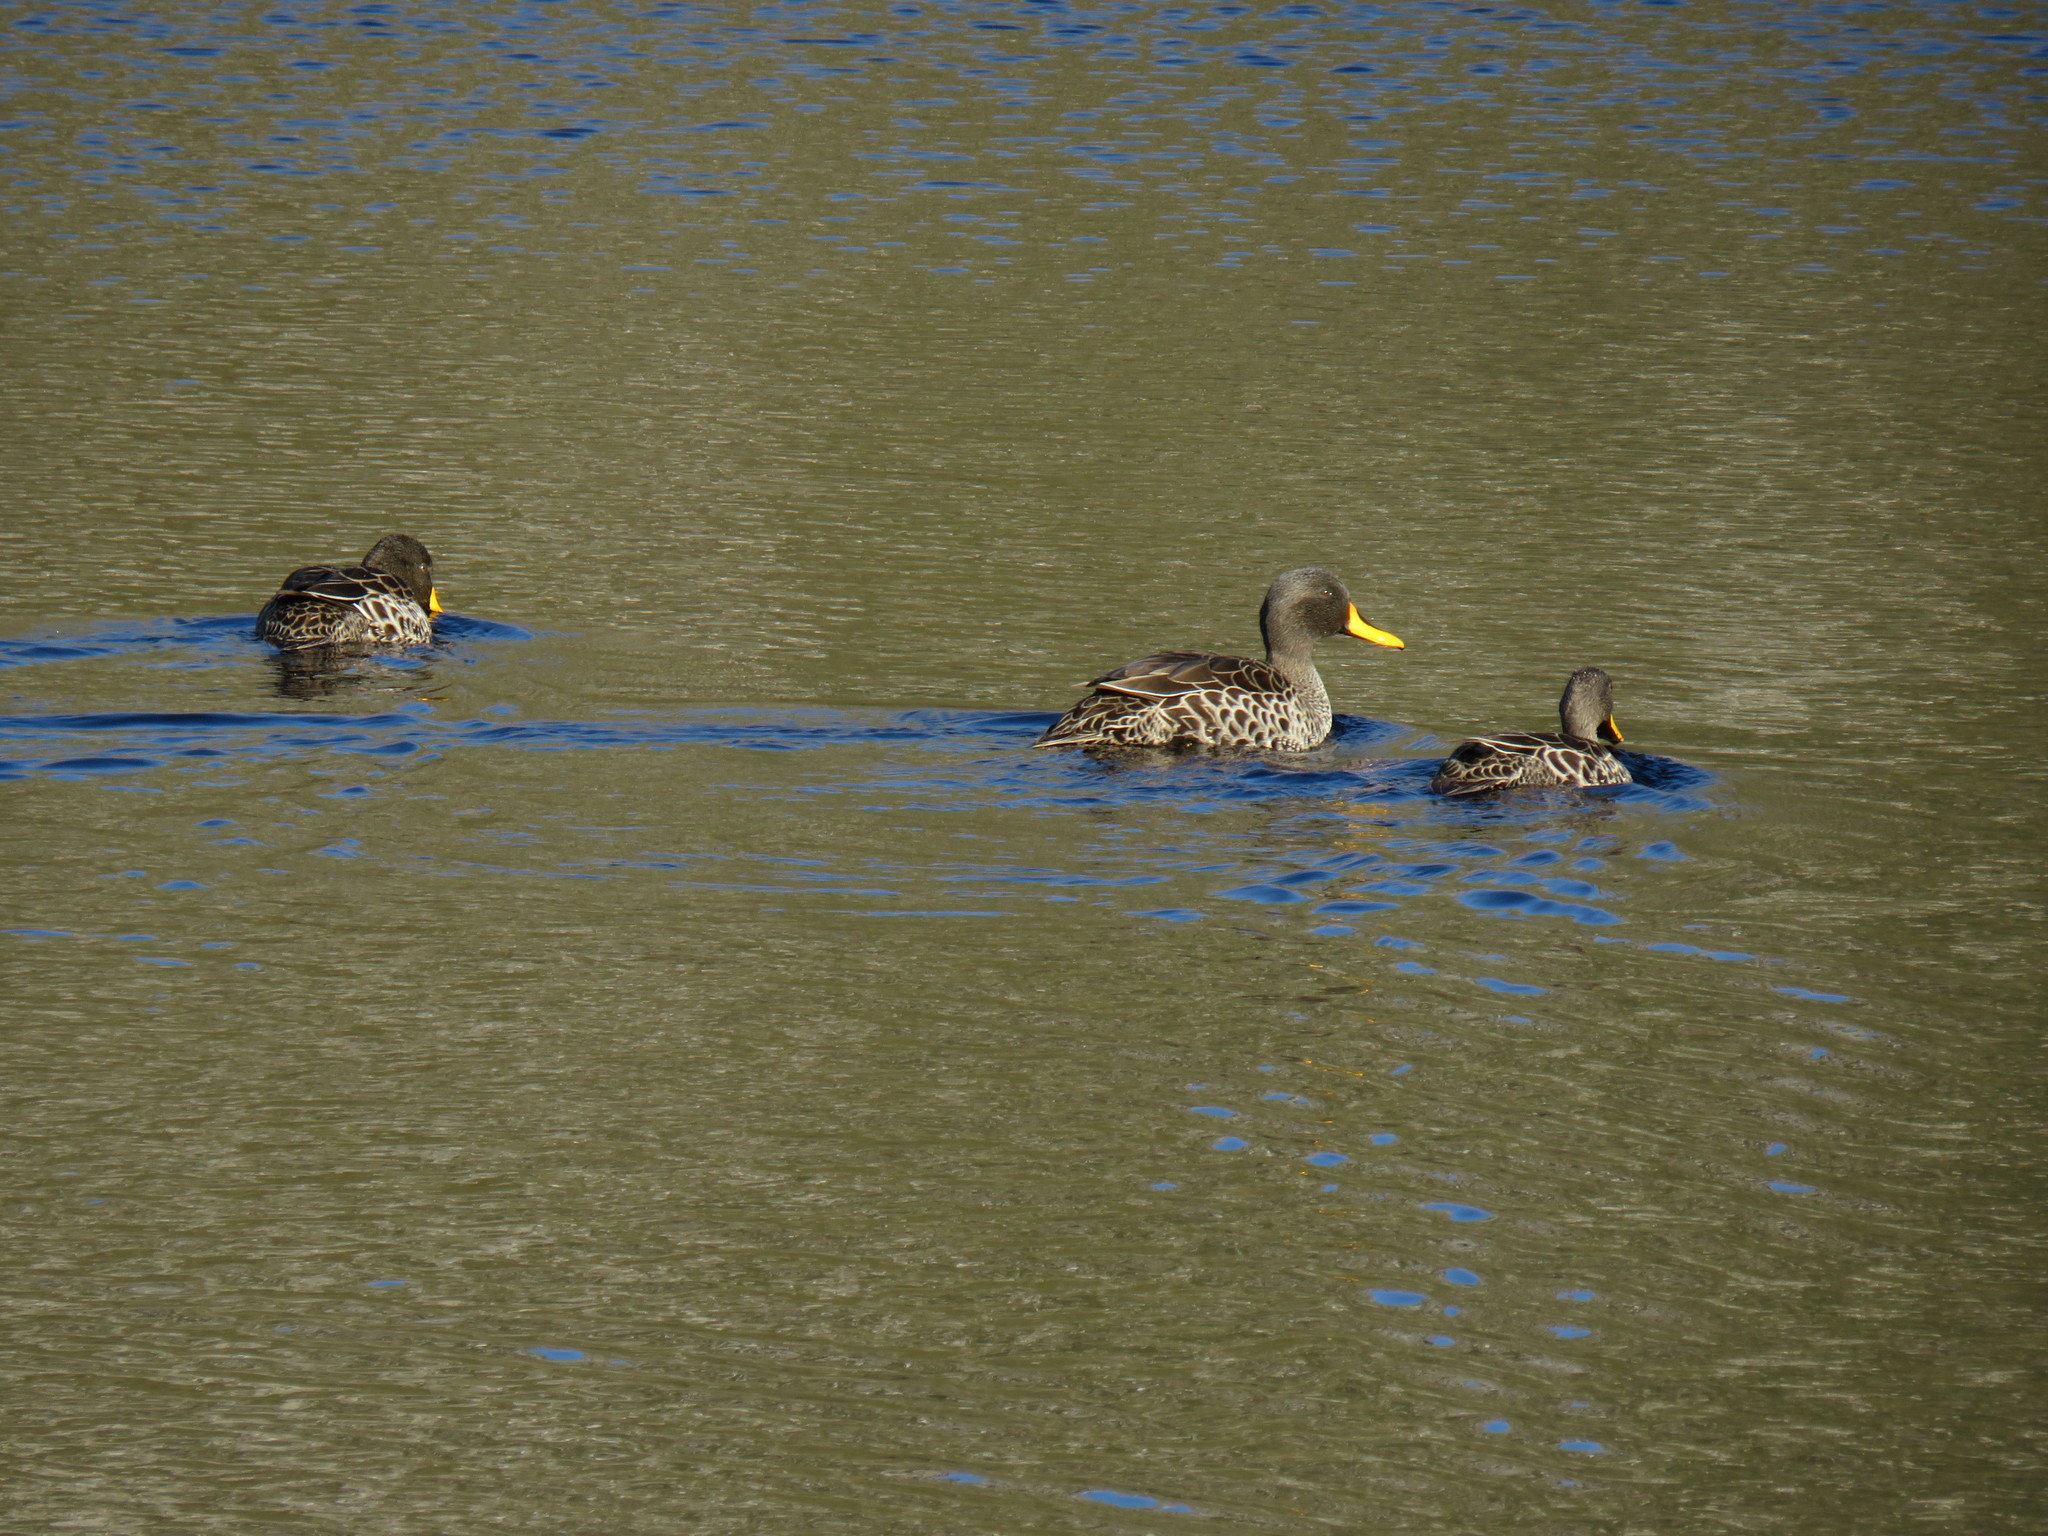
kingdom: Animalia
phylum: Chordata
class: Aves
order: Anseriformes
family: Anatidae
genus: Anas
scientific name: Anas undulata
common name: Yellow-billed duck
